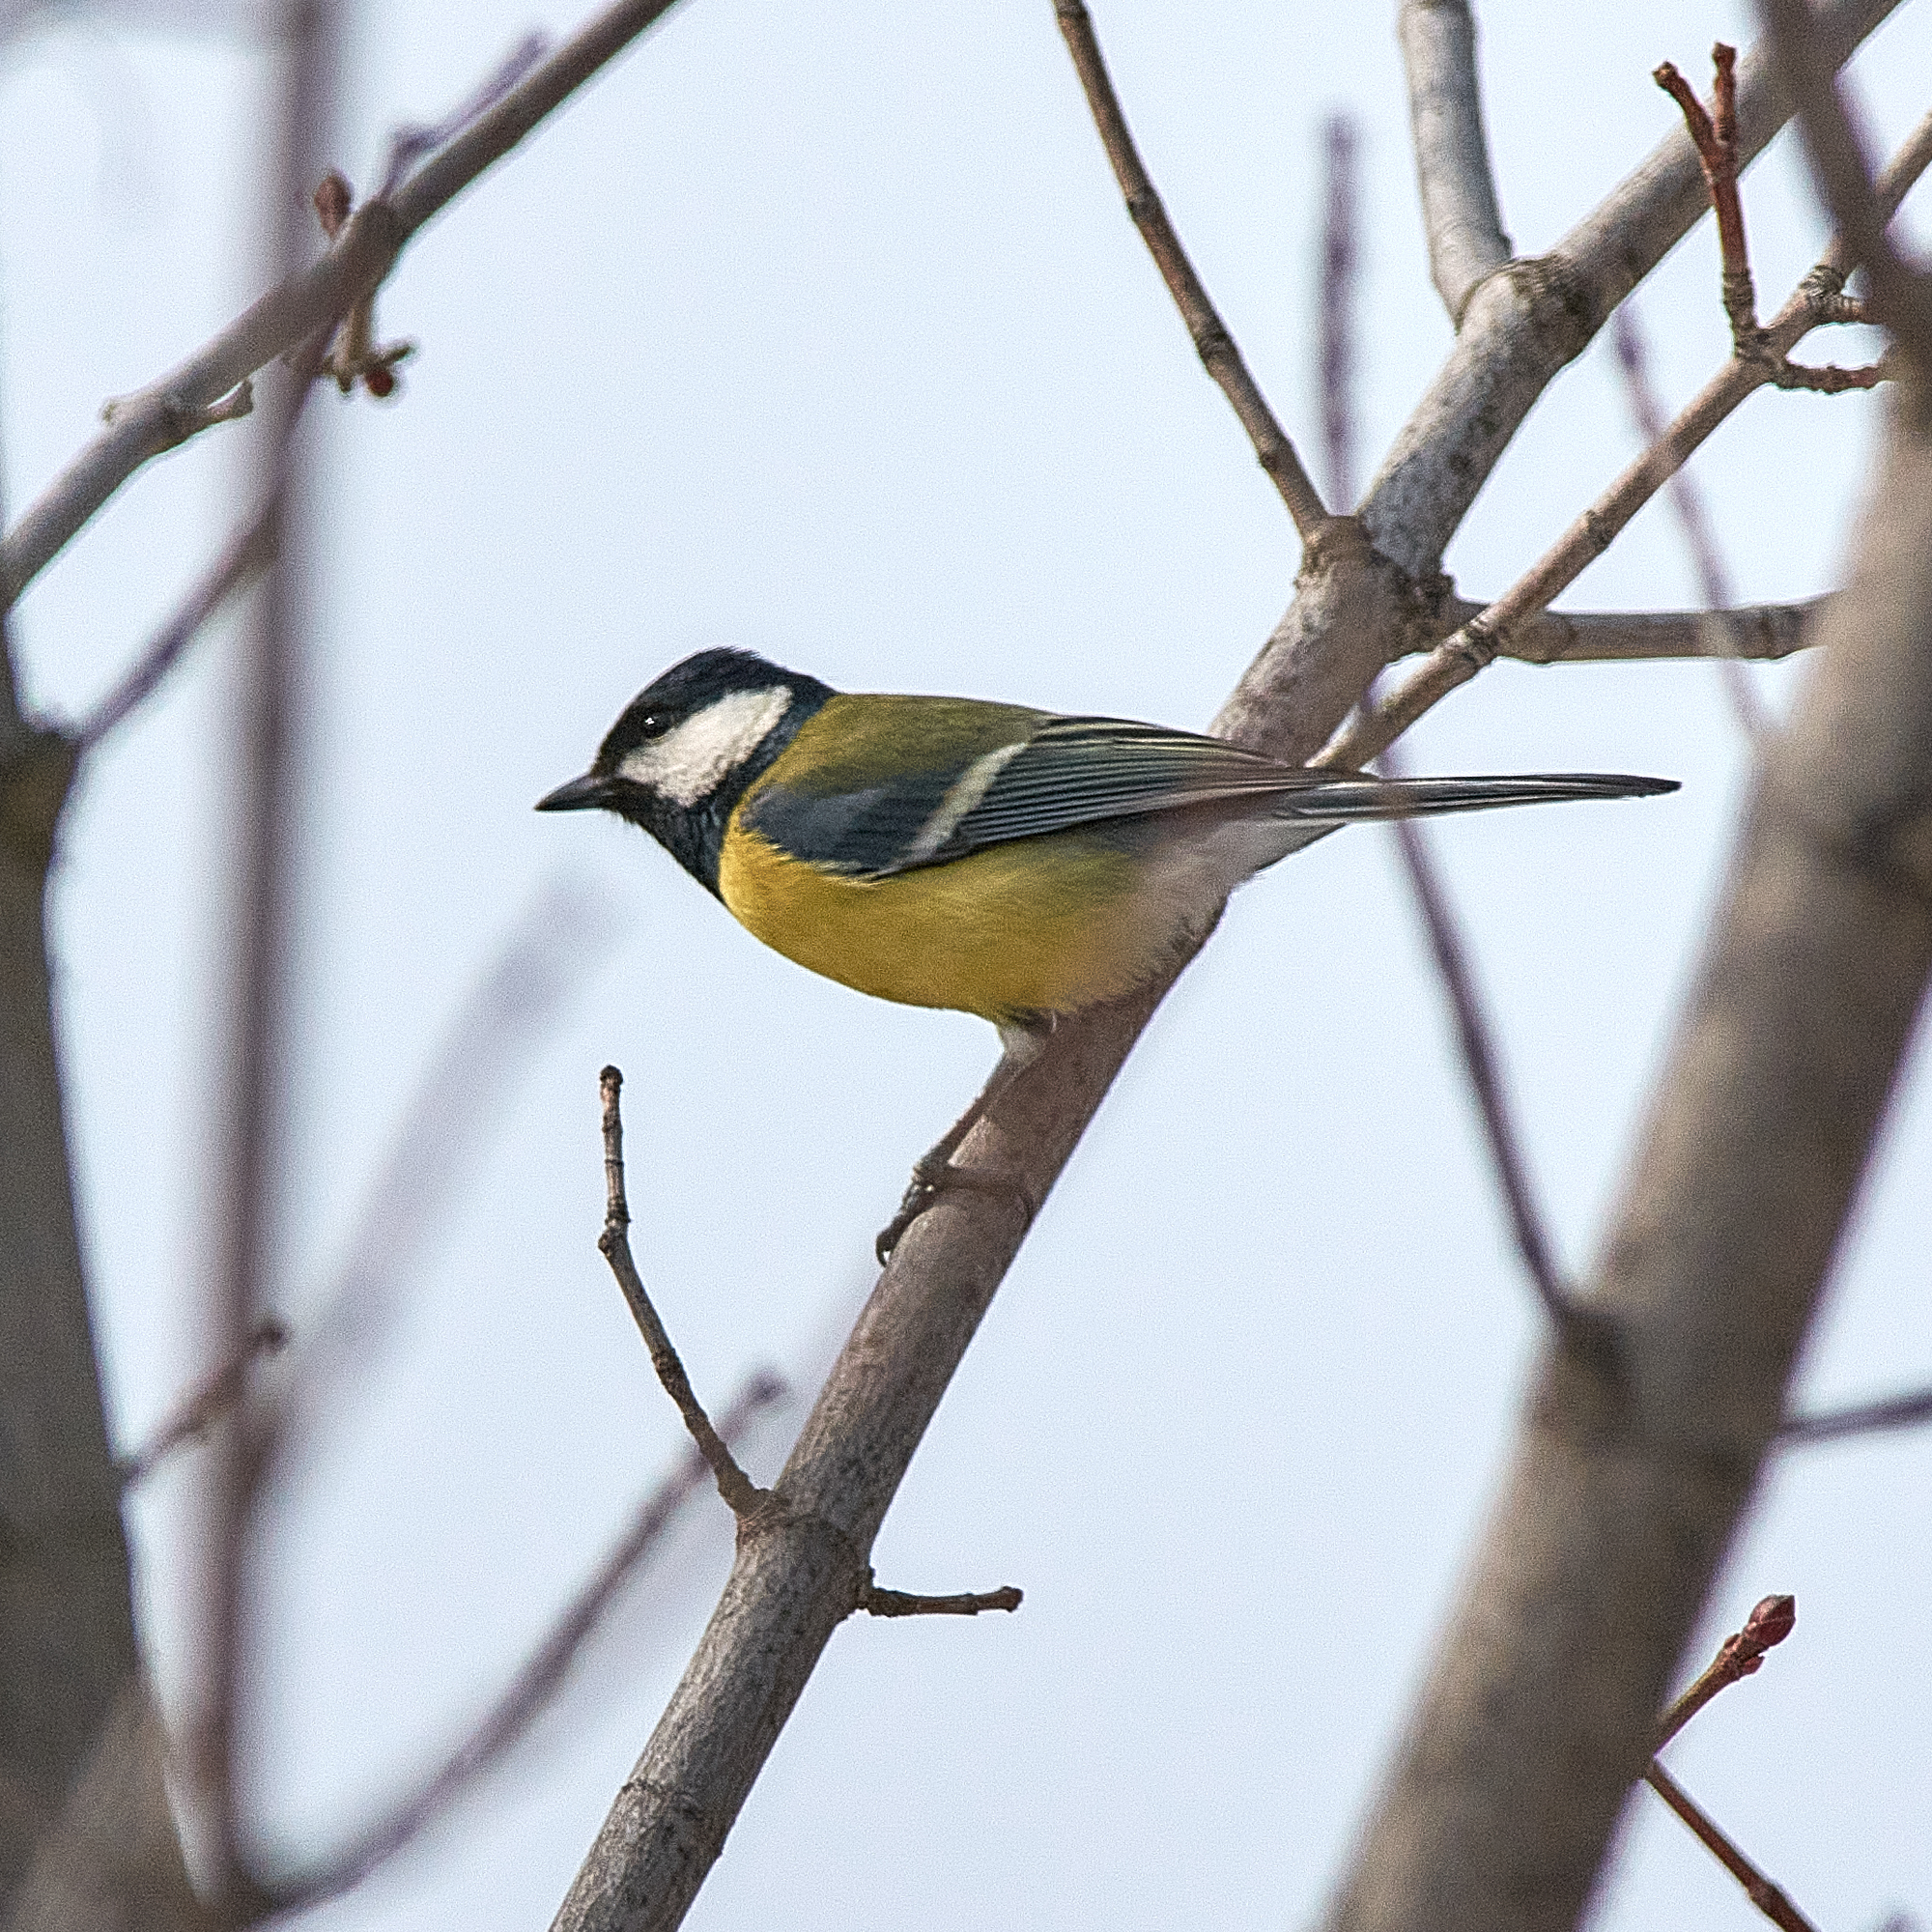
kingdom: Animalia
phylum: Chordata
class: Aves
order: Passeriformes
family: Paridae
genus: Parus
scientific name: Parus major
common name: Great tit
